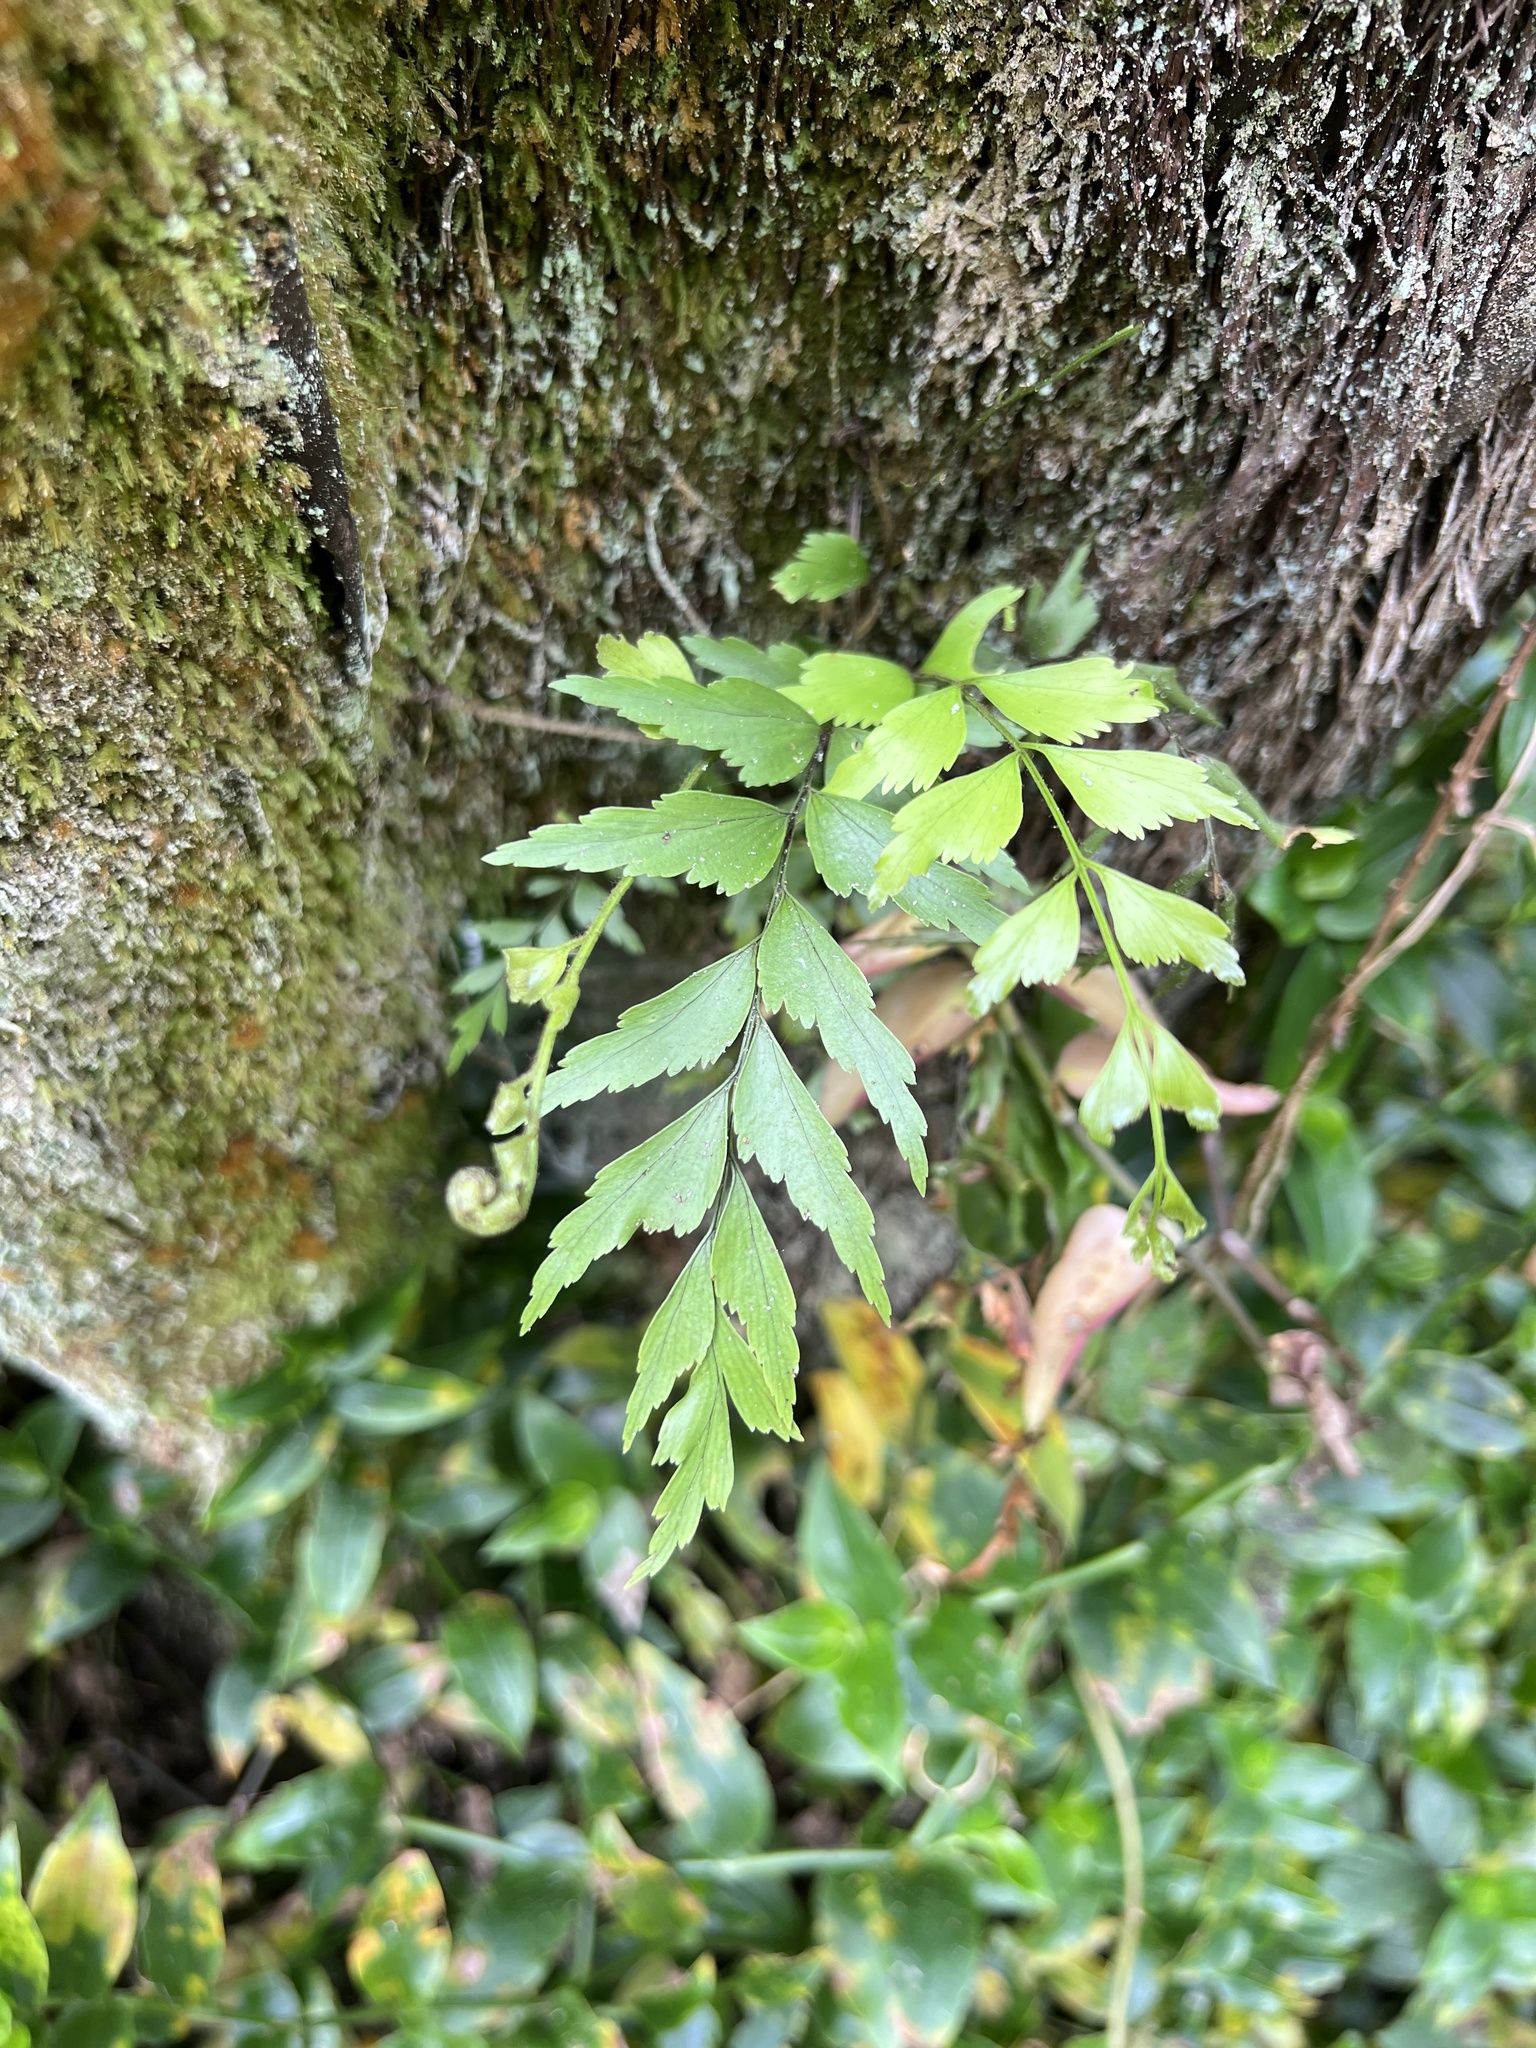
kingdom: Plantae
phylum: Tracheophyta
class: Polypodiopsida
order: Polypodiales
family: Aspleniaceae
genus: Asplenium
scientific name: Asplenium polyodon
